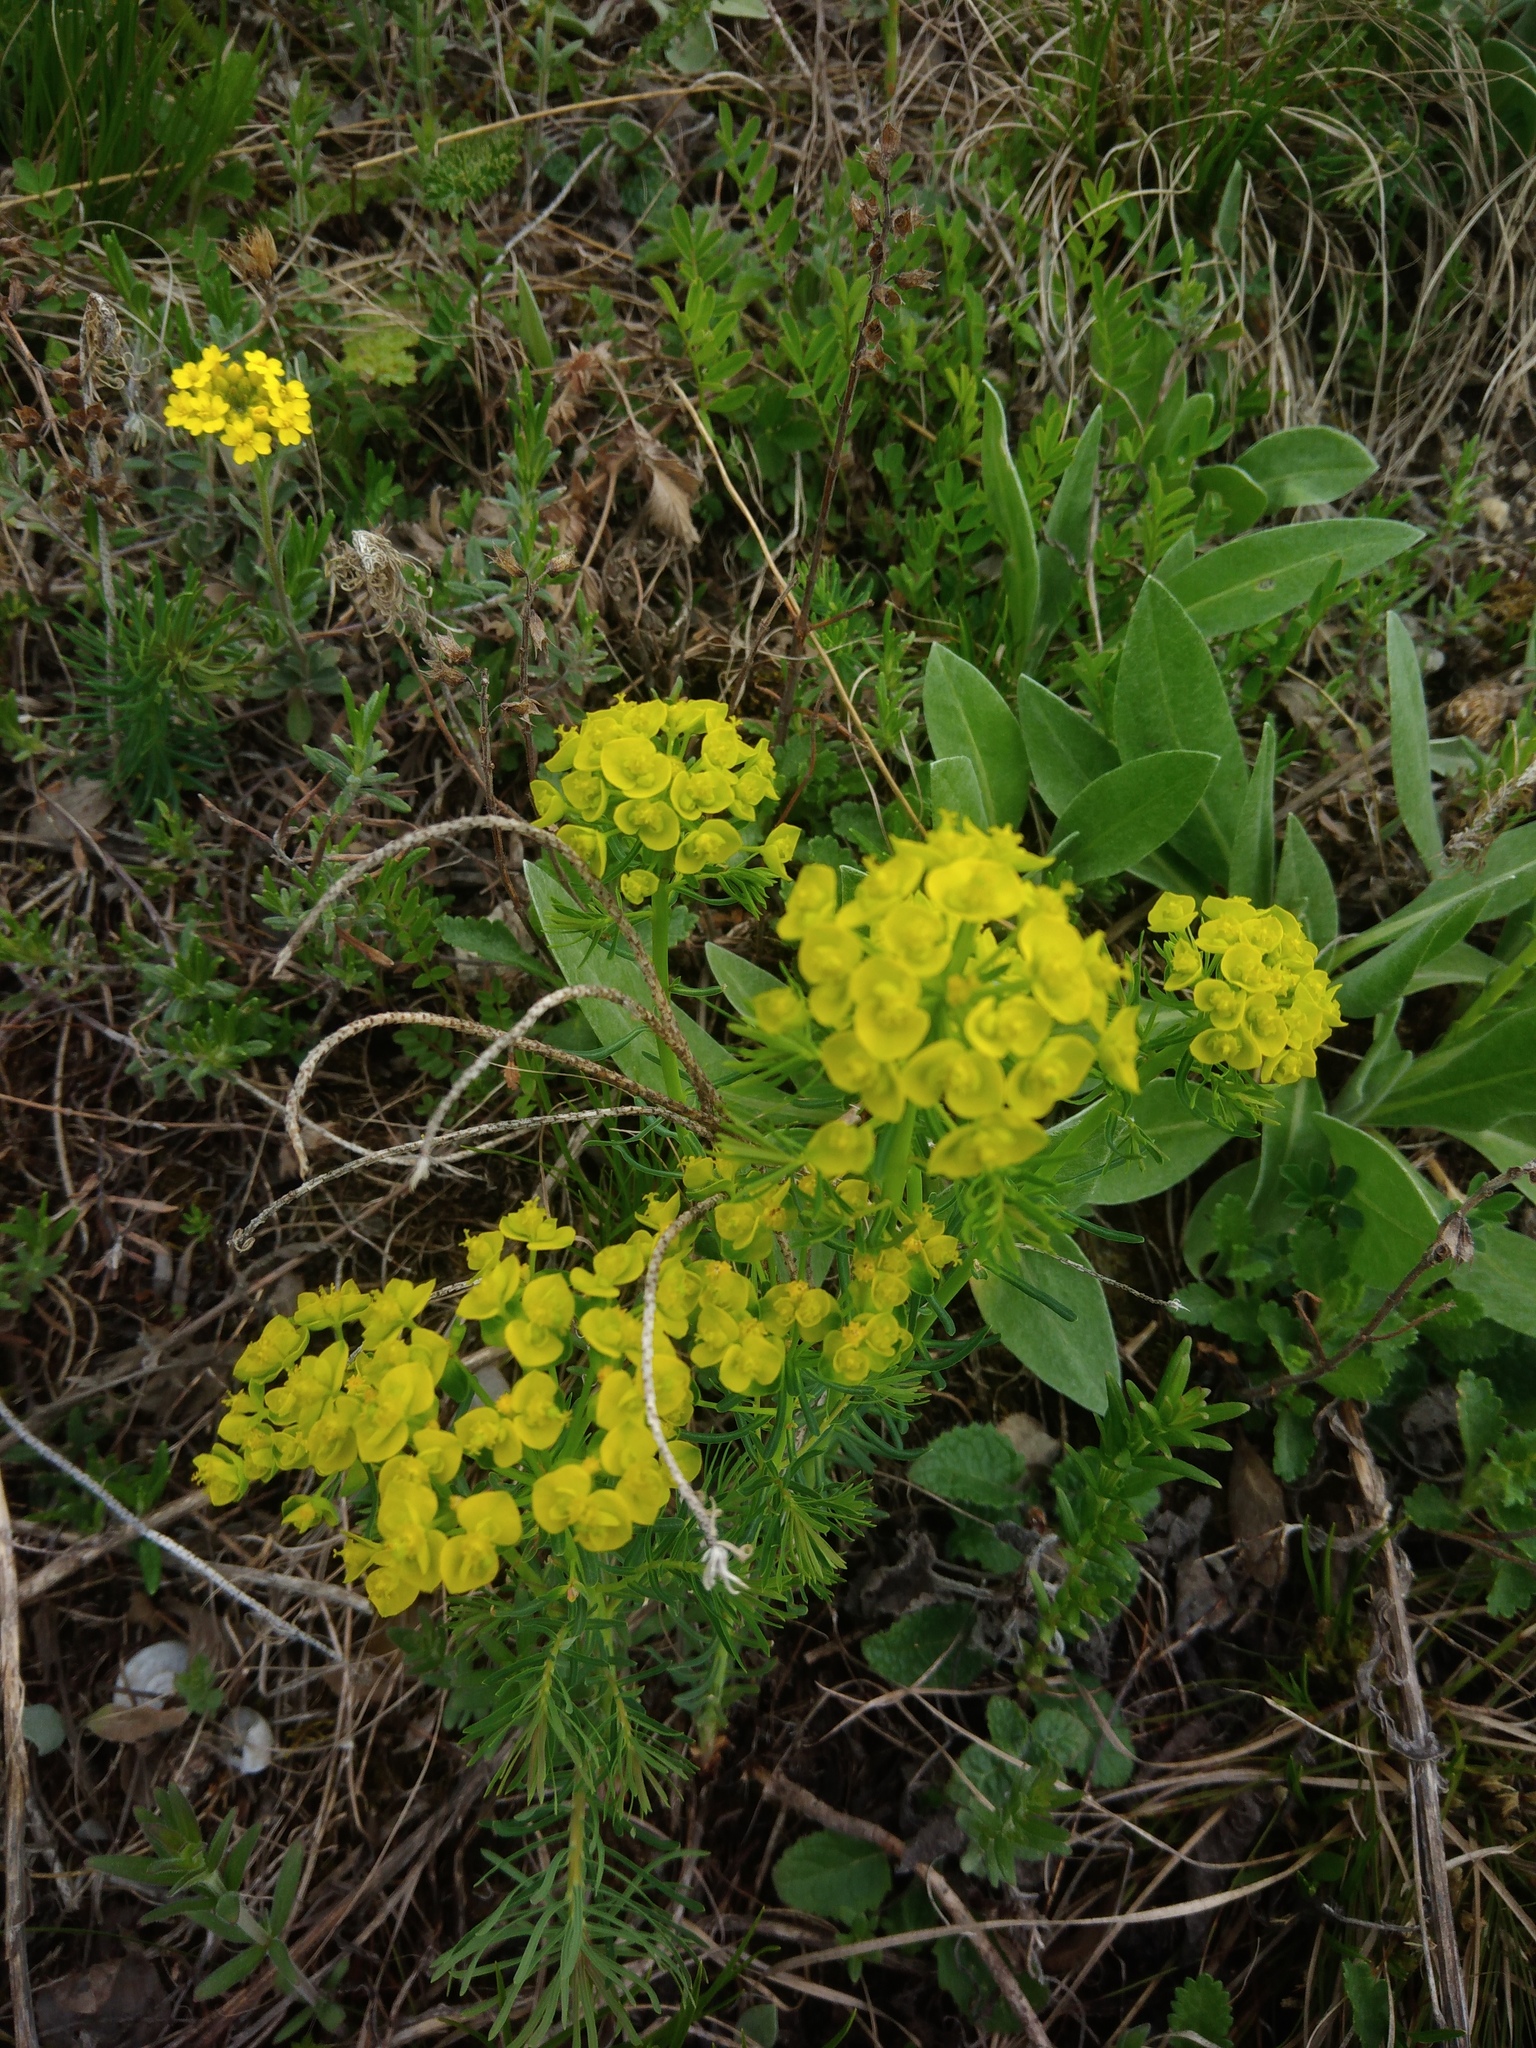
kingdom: Plantae
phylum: Tracheophyta
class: Magnoliopsida
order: Malpighiales
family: Euphorbiaceae
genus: Euphorbia
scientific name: Euphorbia cyparissias
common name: Cypress spurge
